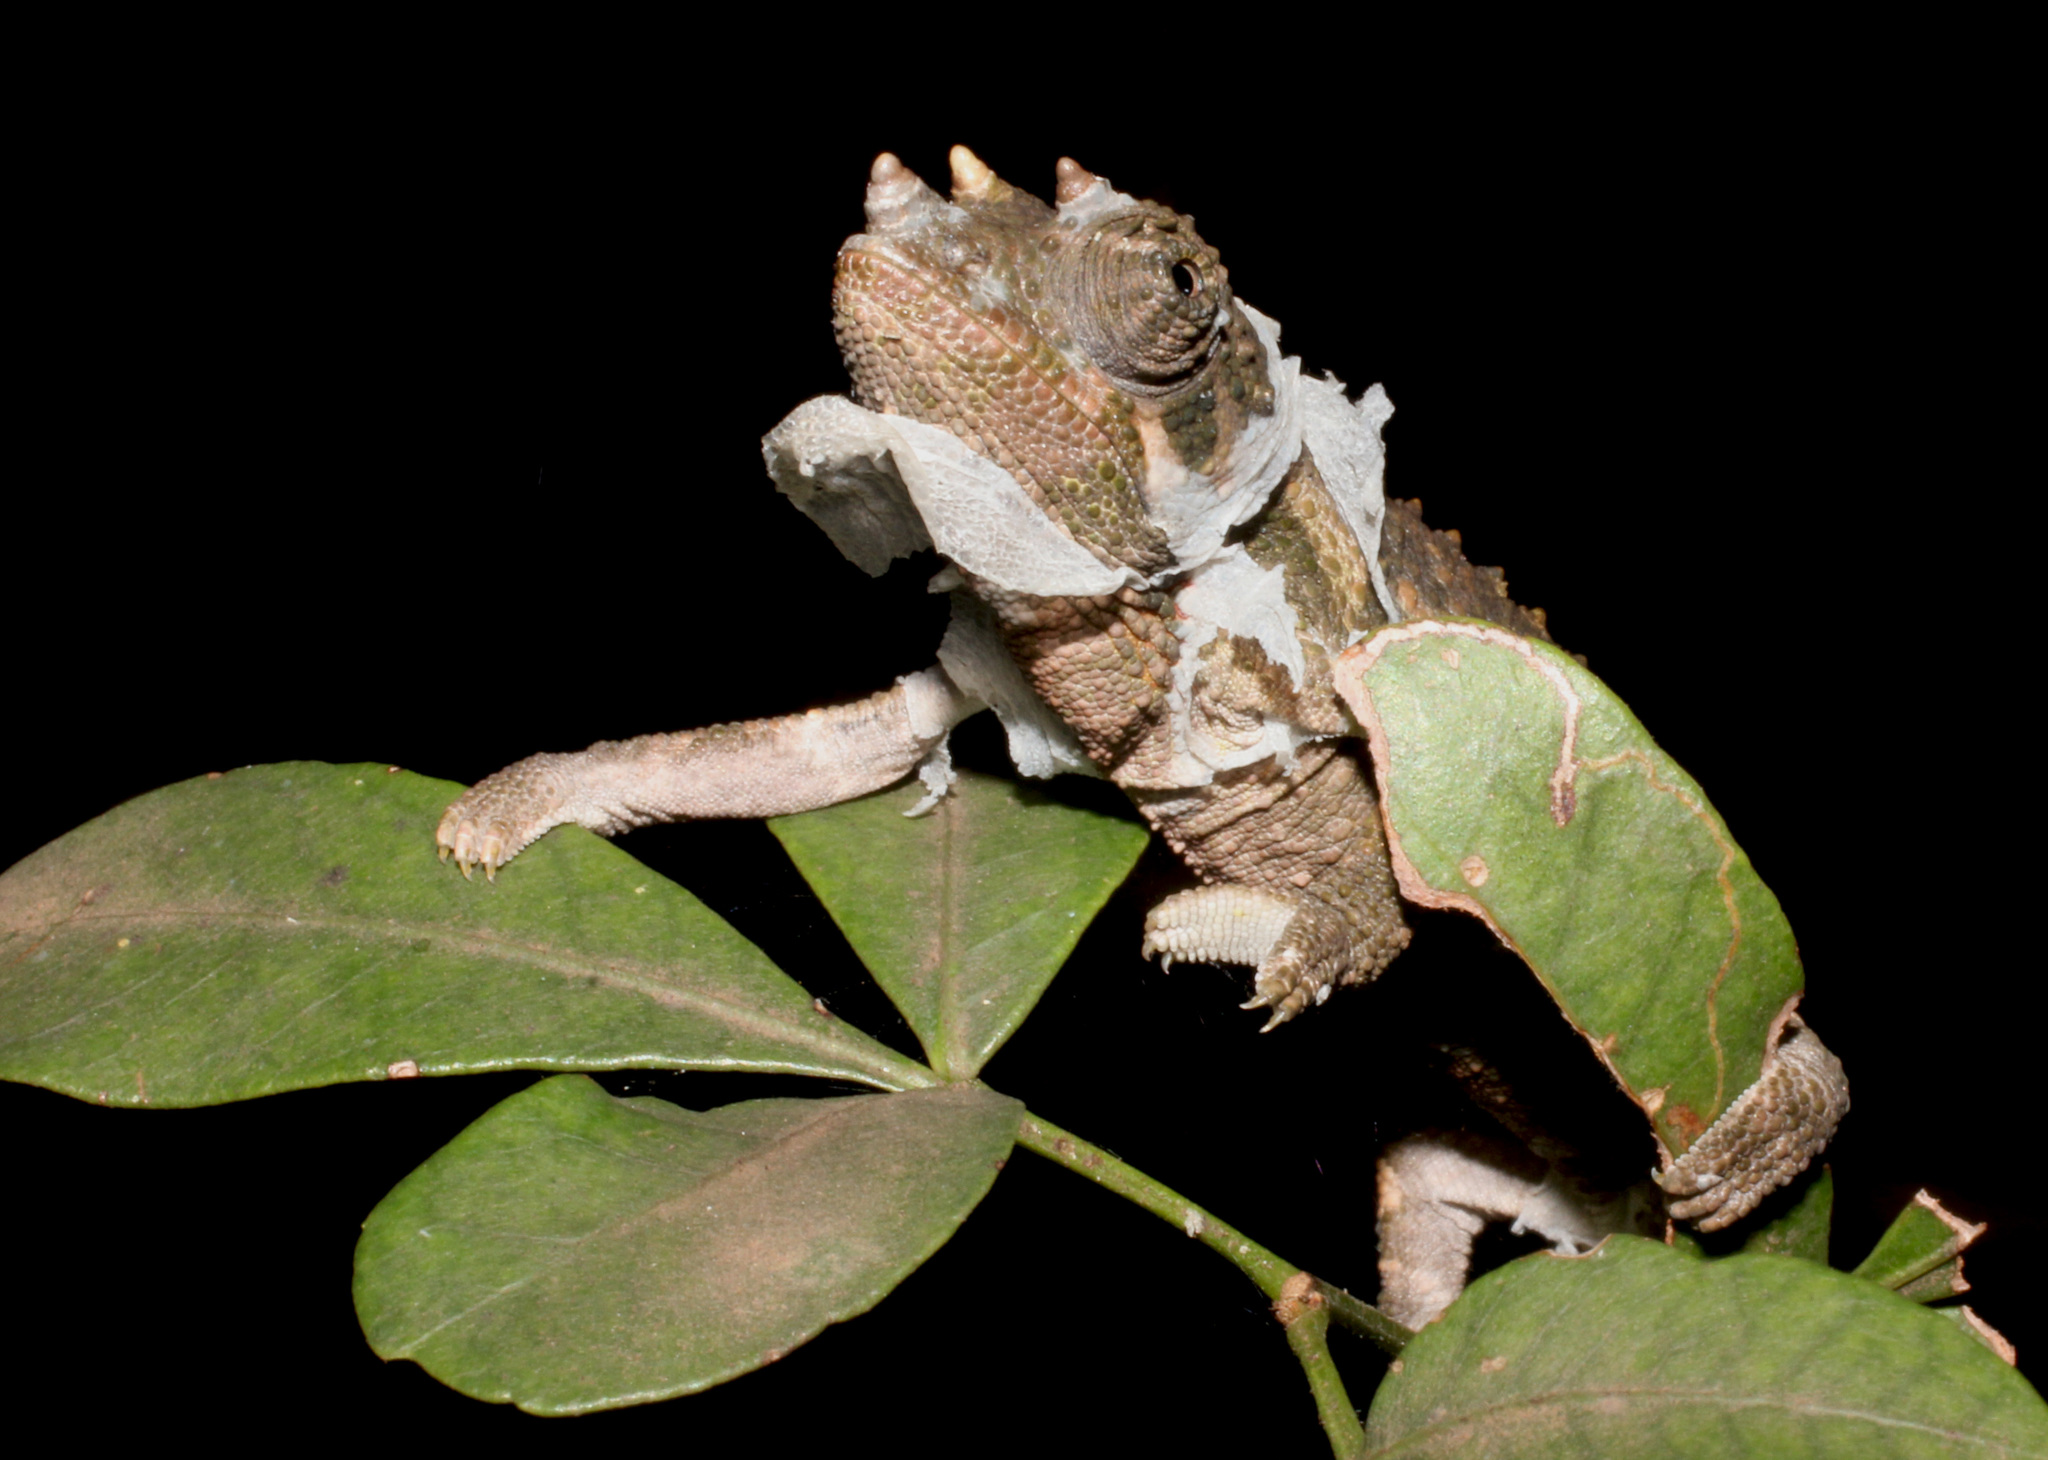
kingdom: Animalia
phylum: Chordata
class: Squamata
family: Chamaeleonidae
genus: Trioceros
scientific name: Trioceros jacksonii
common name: Jackson's chameleon
